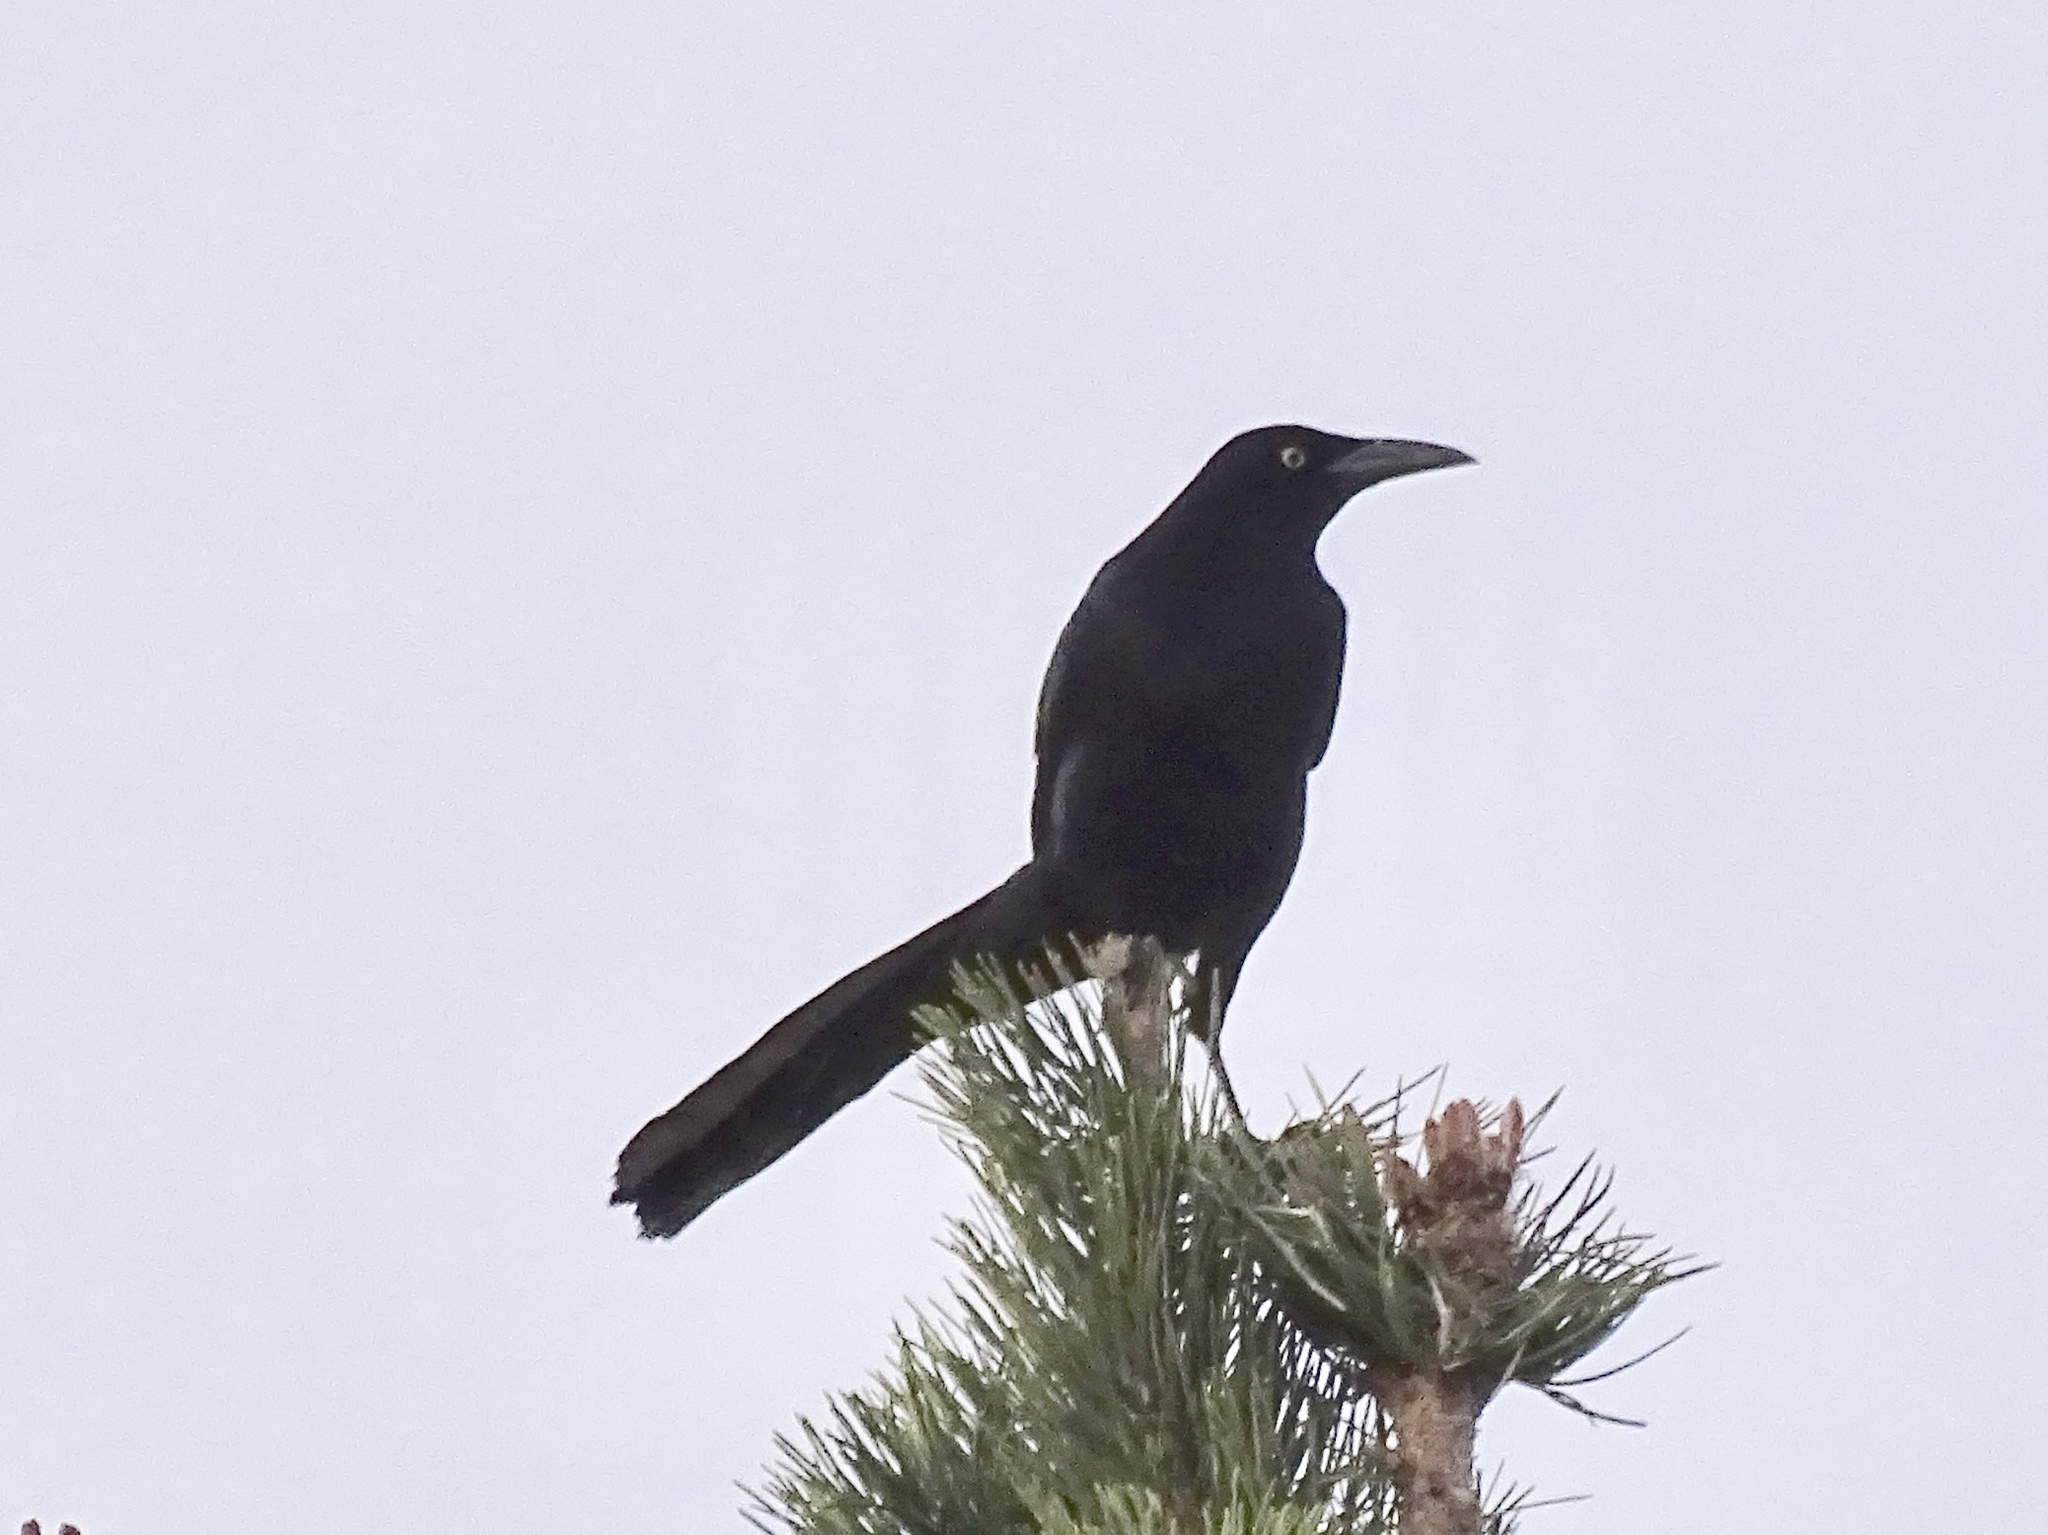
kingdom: Animalia
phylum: Chordata
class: Aves
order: Passeriformes
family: Icteridae
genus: Quiscalus
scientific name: Quiscalus mexicanus
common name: Great-tailed grackle
